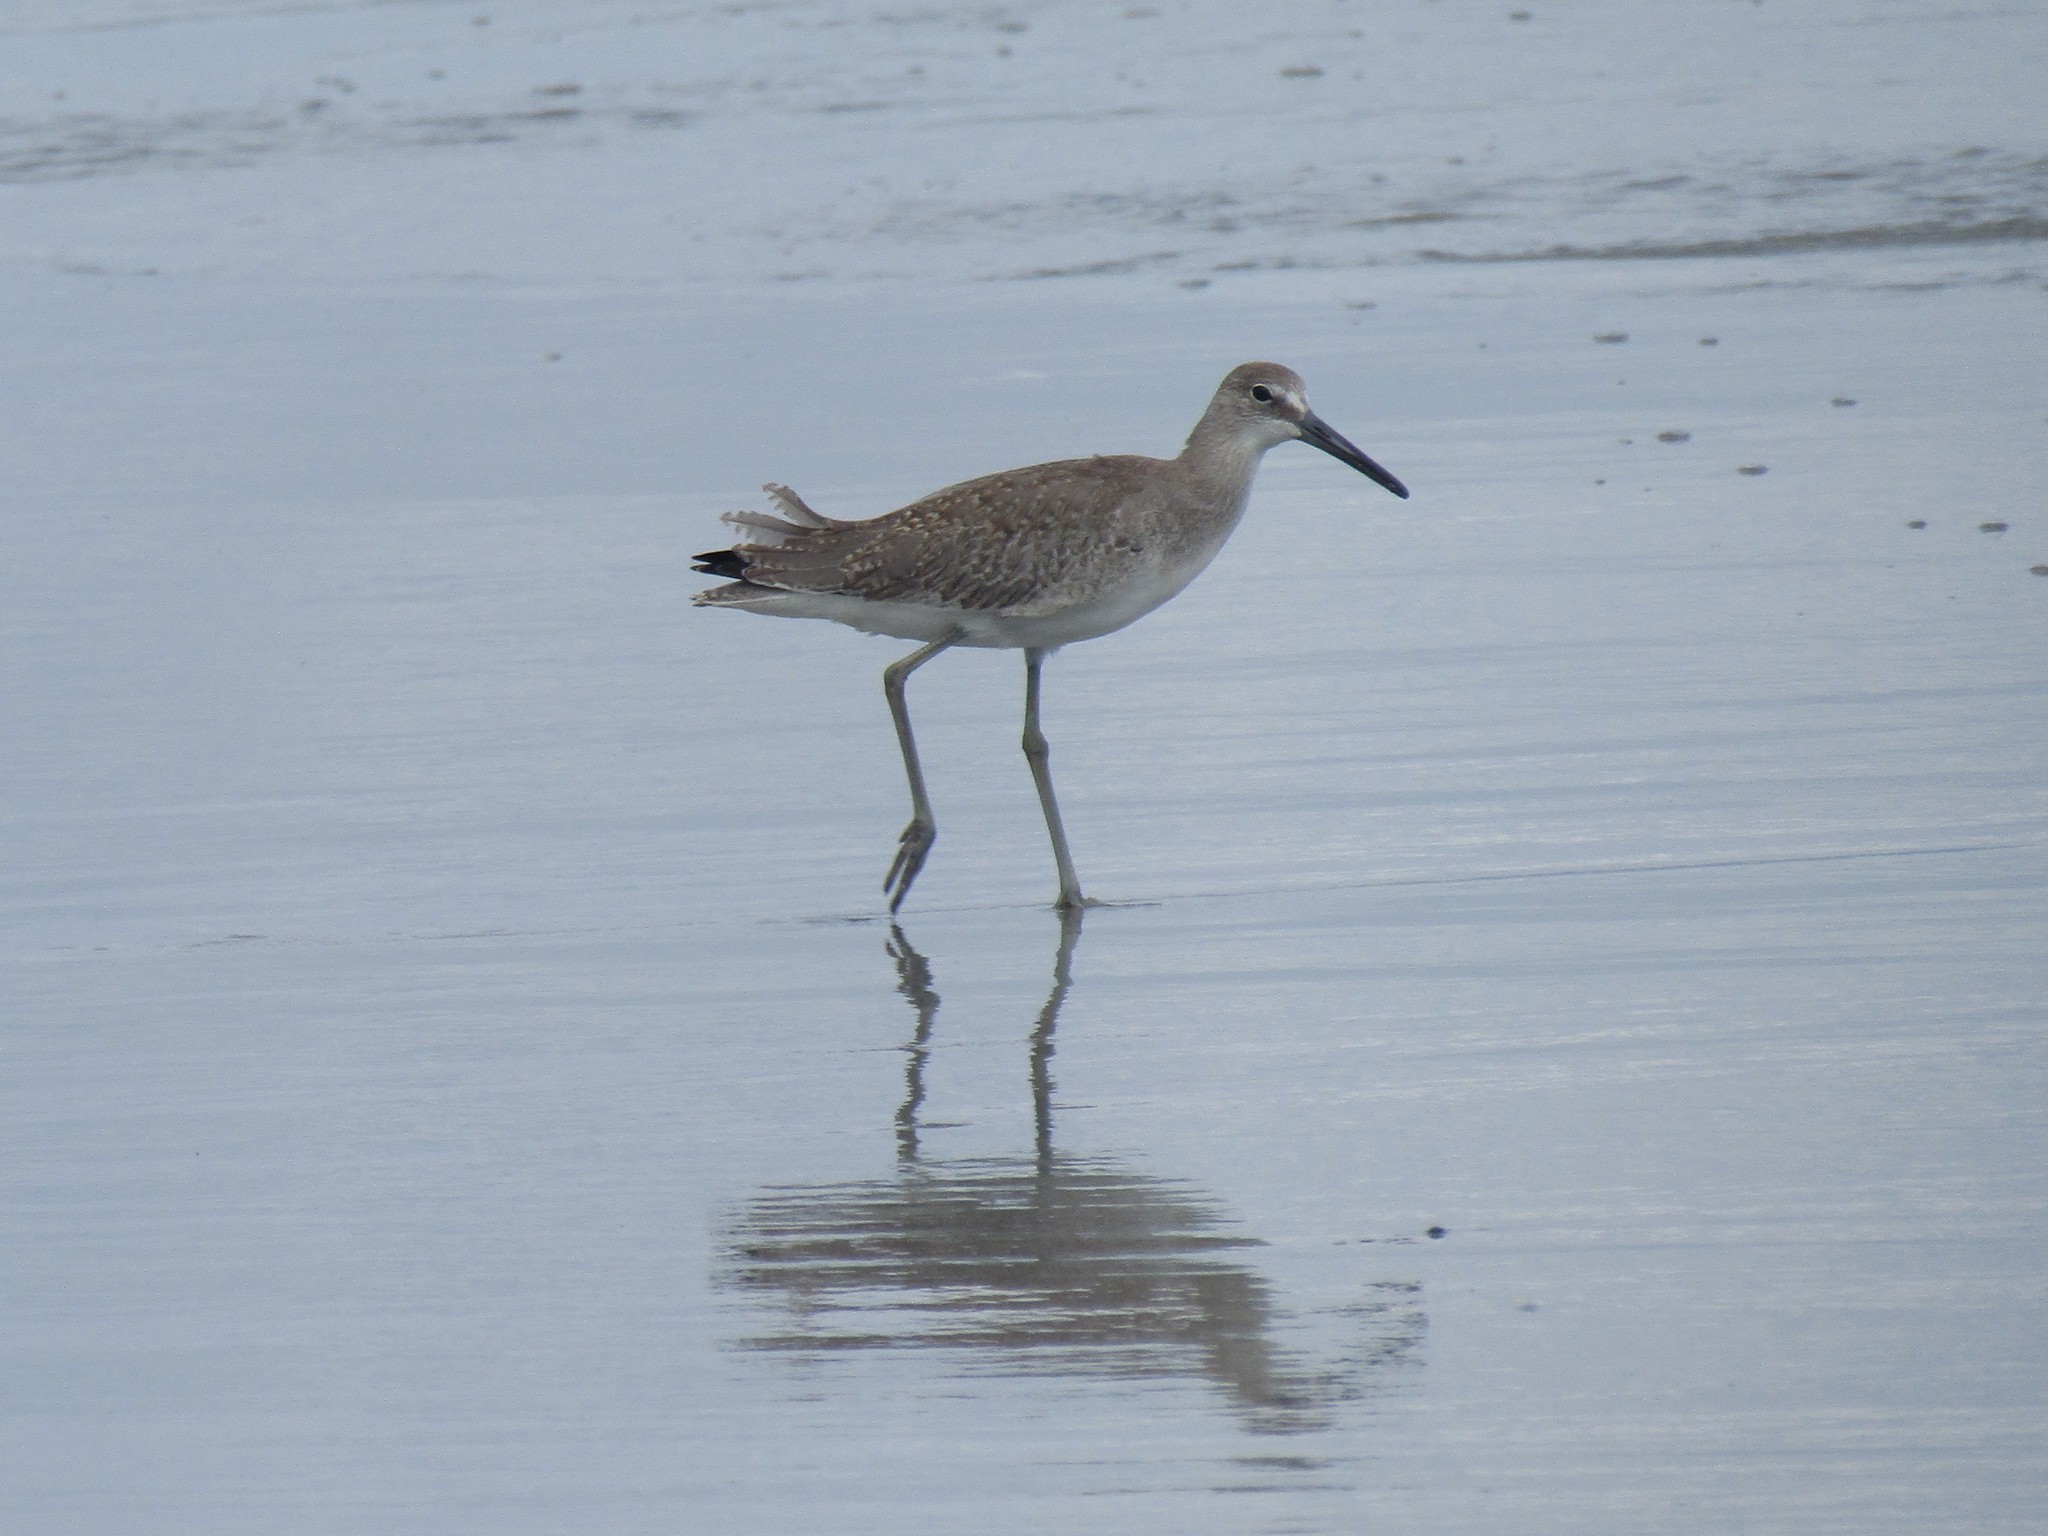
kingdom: Animalia
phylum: Chordata
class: Aves
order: Charadriiformes
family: Scolopacidae
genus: Tringa
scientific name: Tringa semipalmata
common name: Willet
